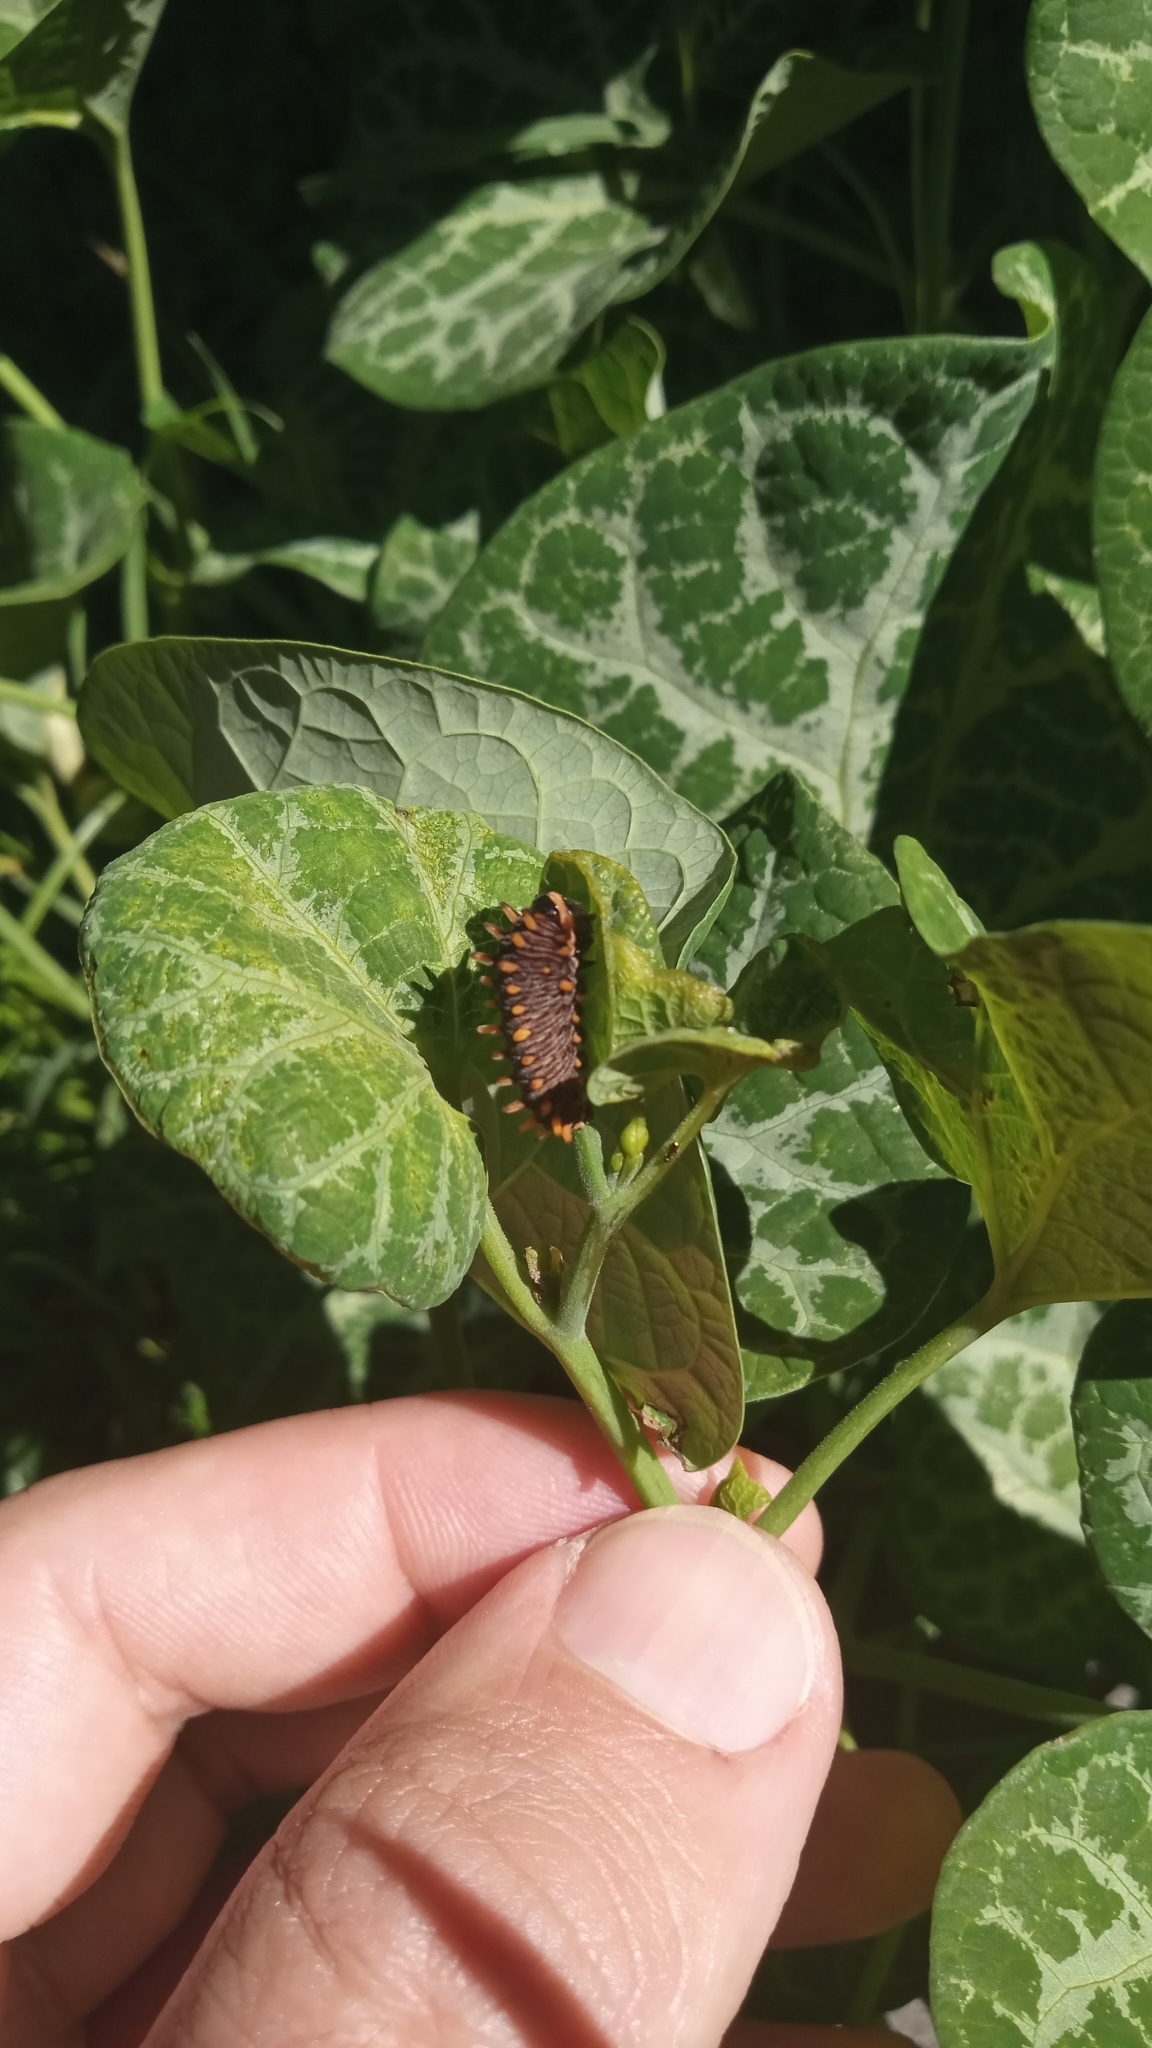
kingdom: Animalia
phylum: Arthropoda
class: Insecta
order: Lepidoptera
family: Papilionidae
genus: Battus
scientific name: Battus polydamas
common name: Polydamas swallowtail
